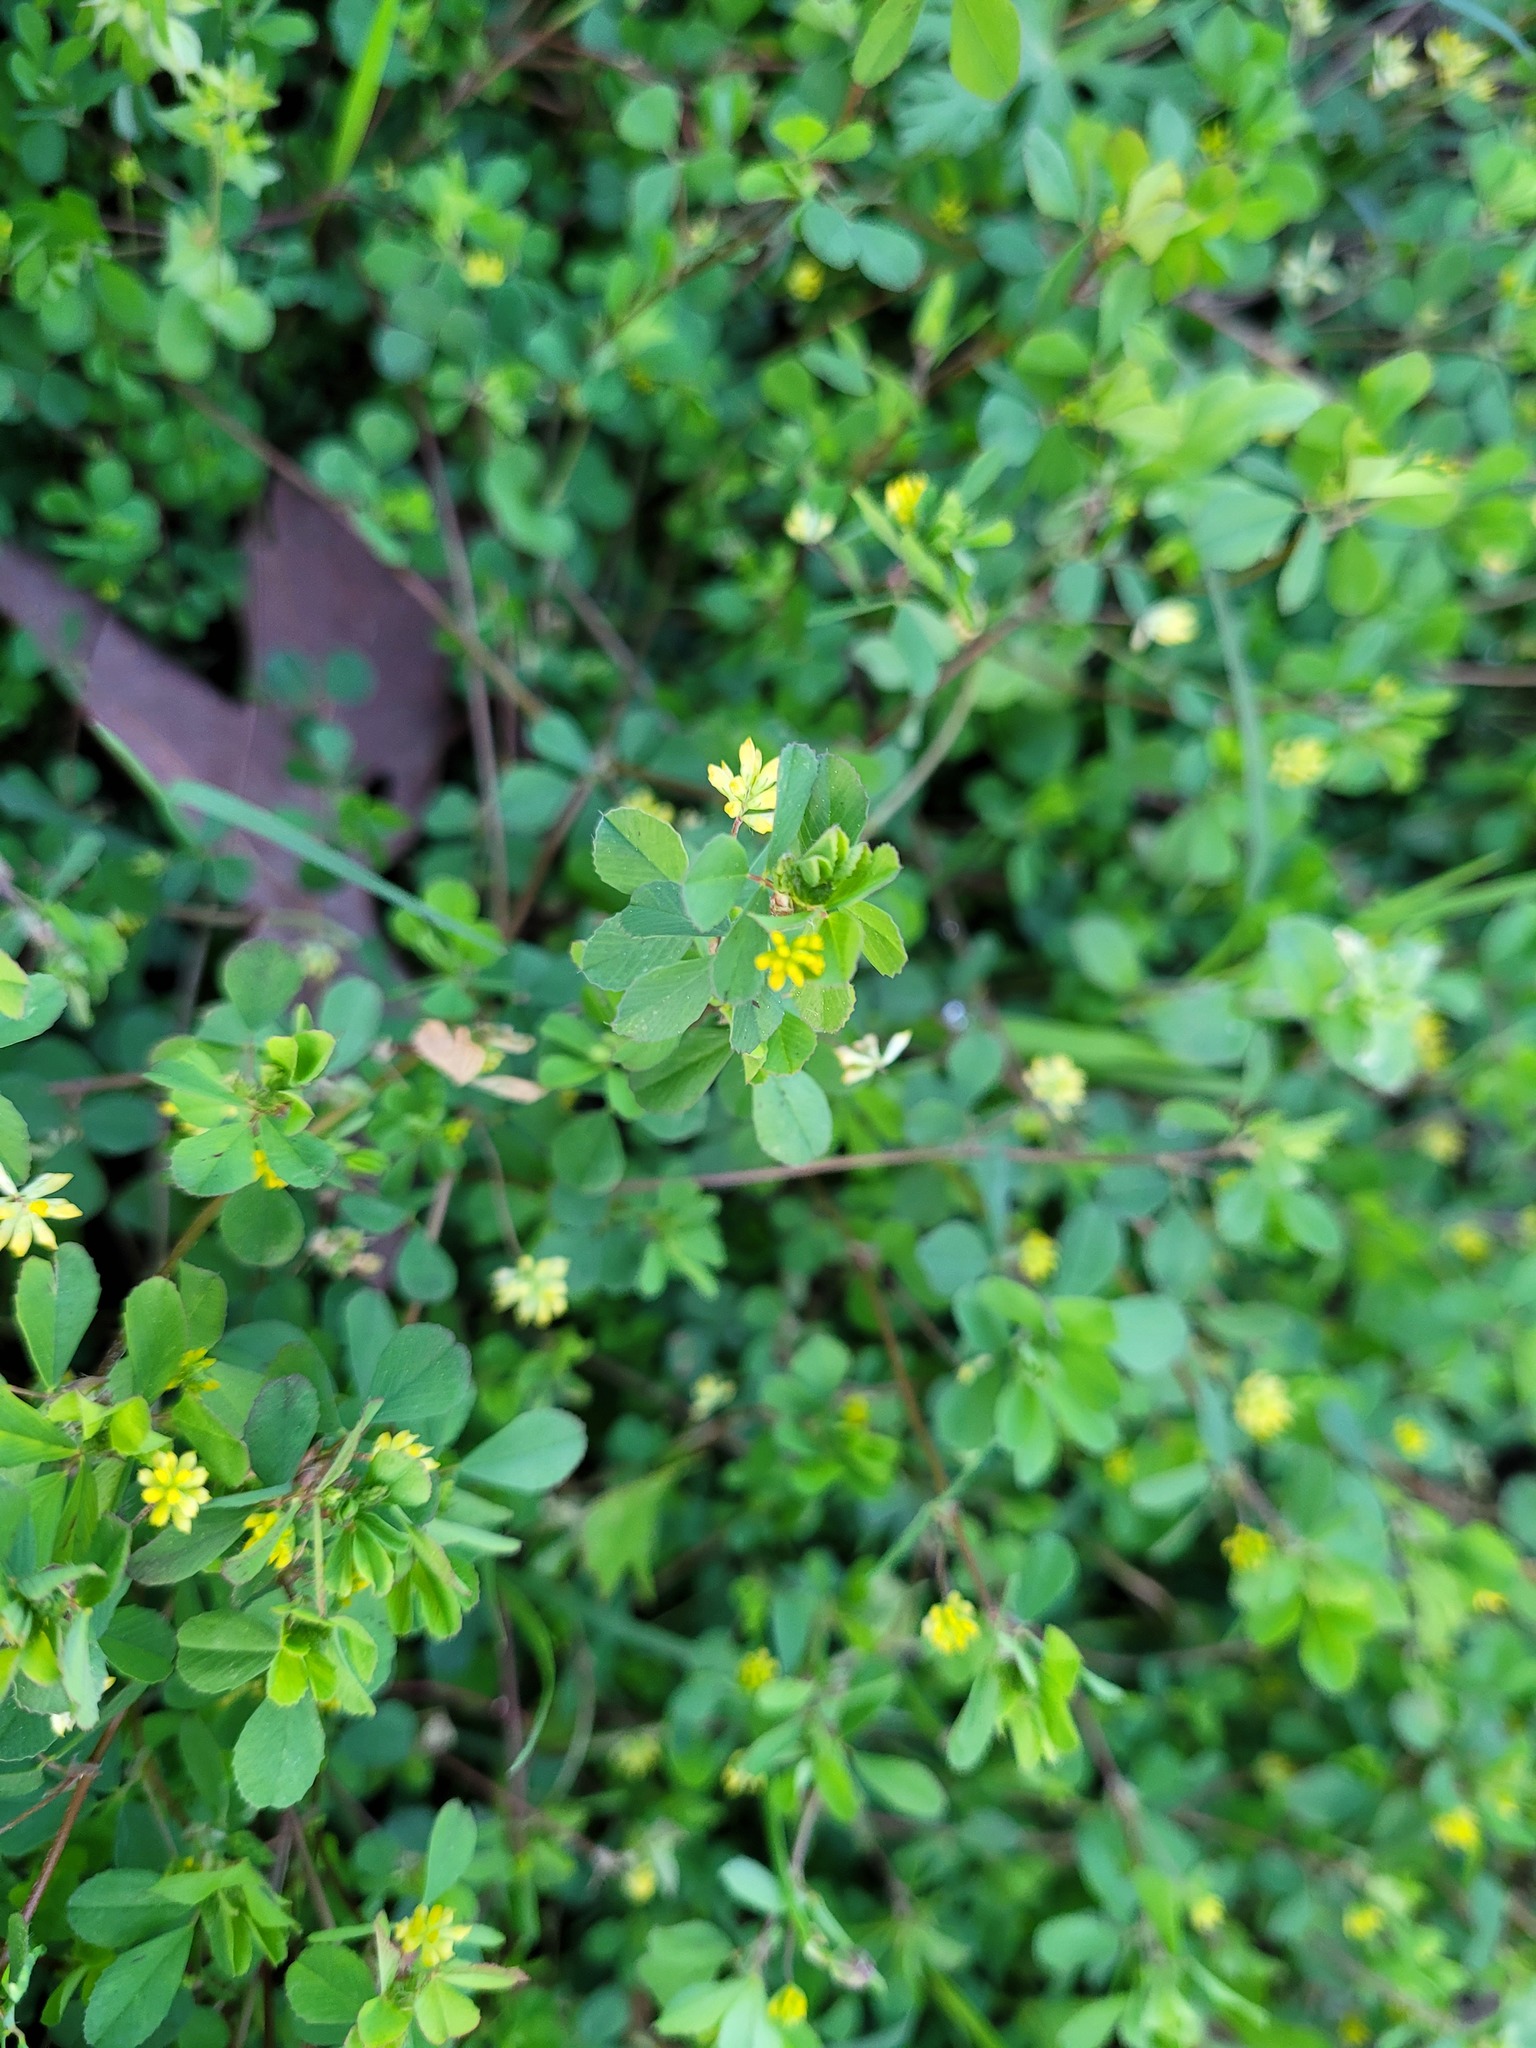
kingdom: Plantae
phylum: Tracheophyta
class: Magnoliopsida
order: Fabales
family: Fabaceae
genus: Trifolium
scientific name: Trifolium dubium
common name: Suckling clover
